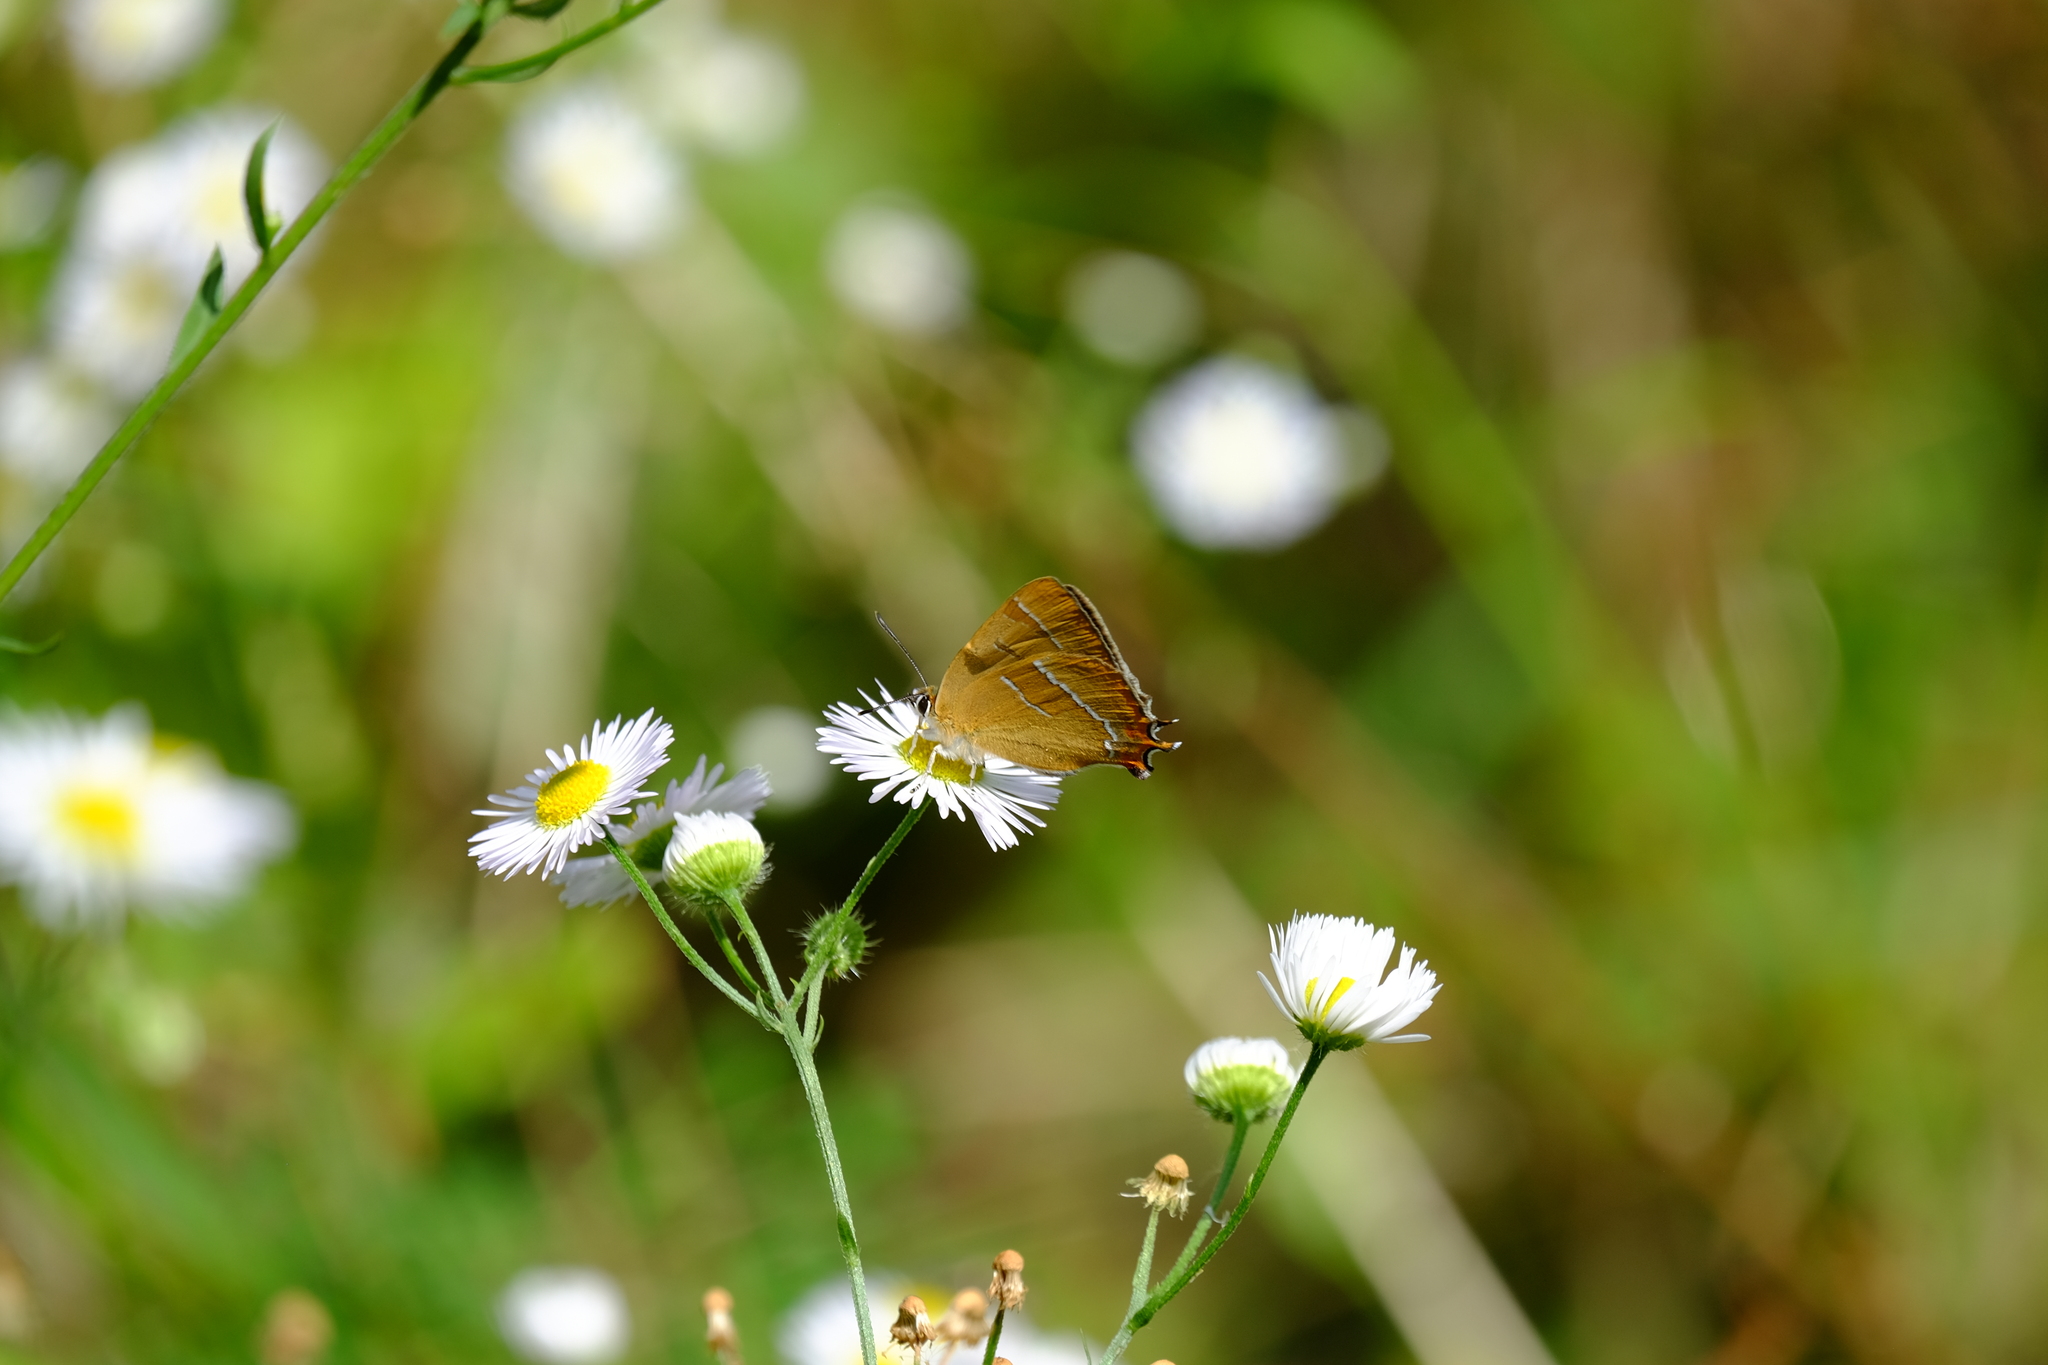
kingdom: Animalia
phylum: Arthropoda
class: Insecta
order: Lepidoptera
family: Lycaenidae
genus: Thecla
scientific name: Thecla betulae
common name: Brown hairstreak
